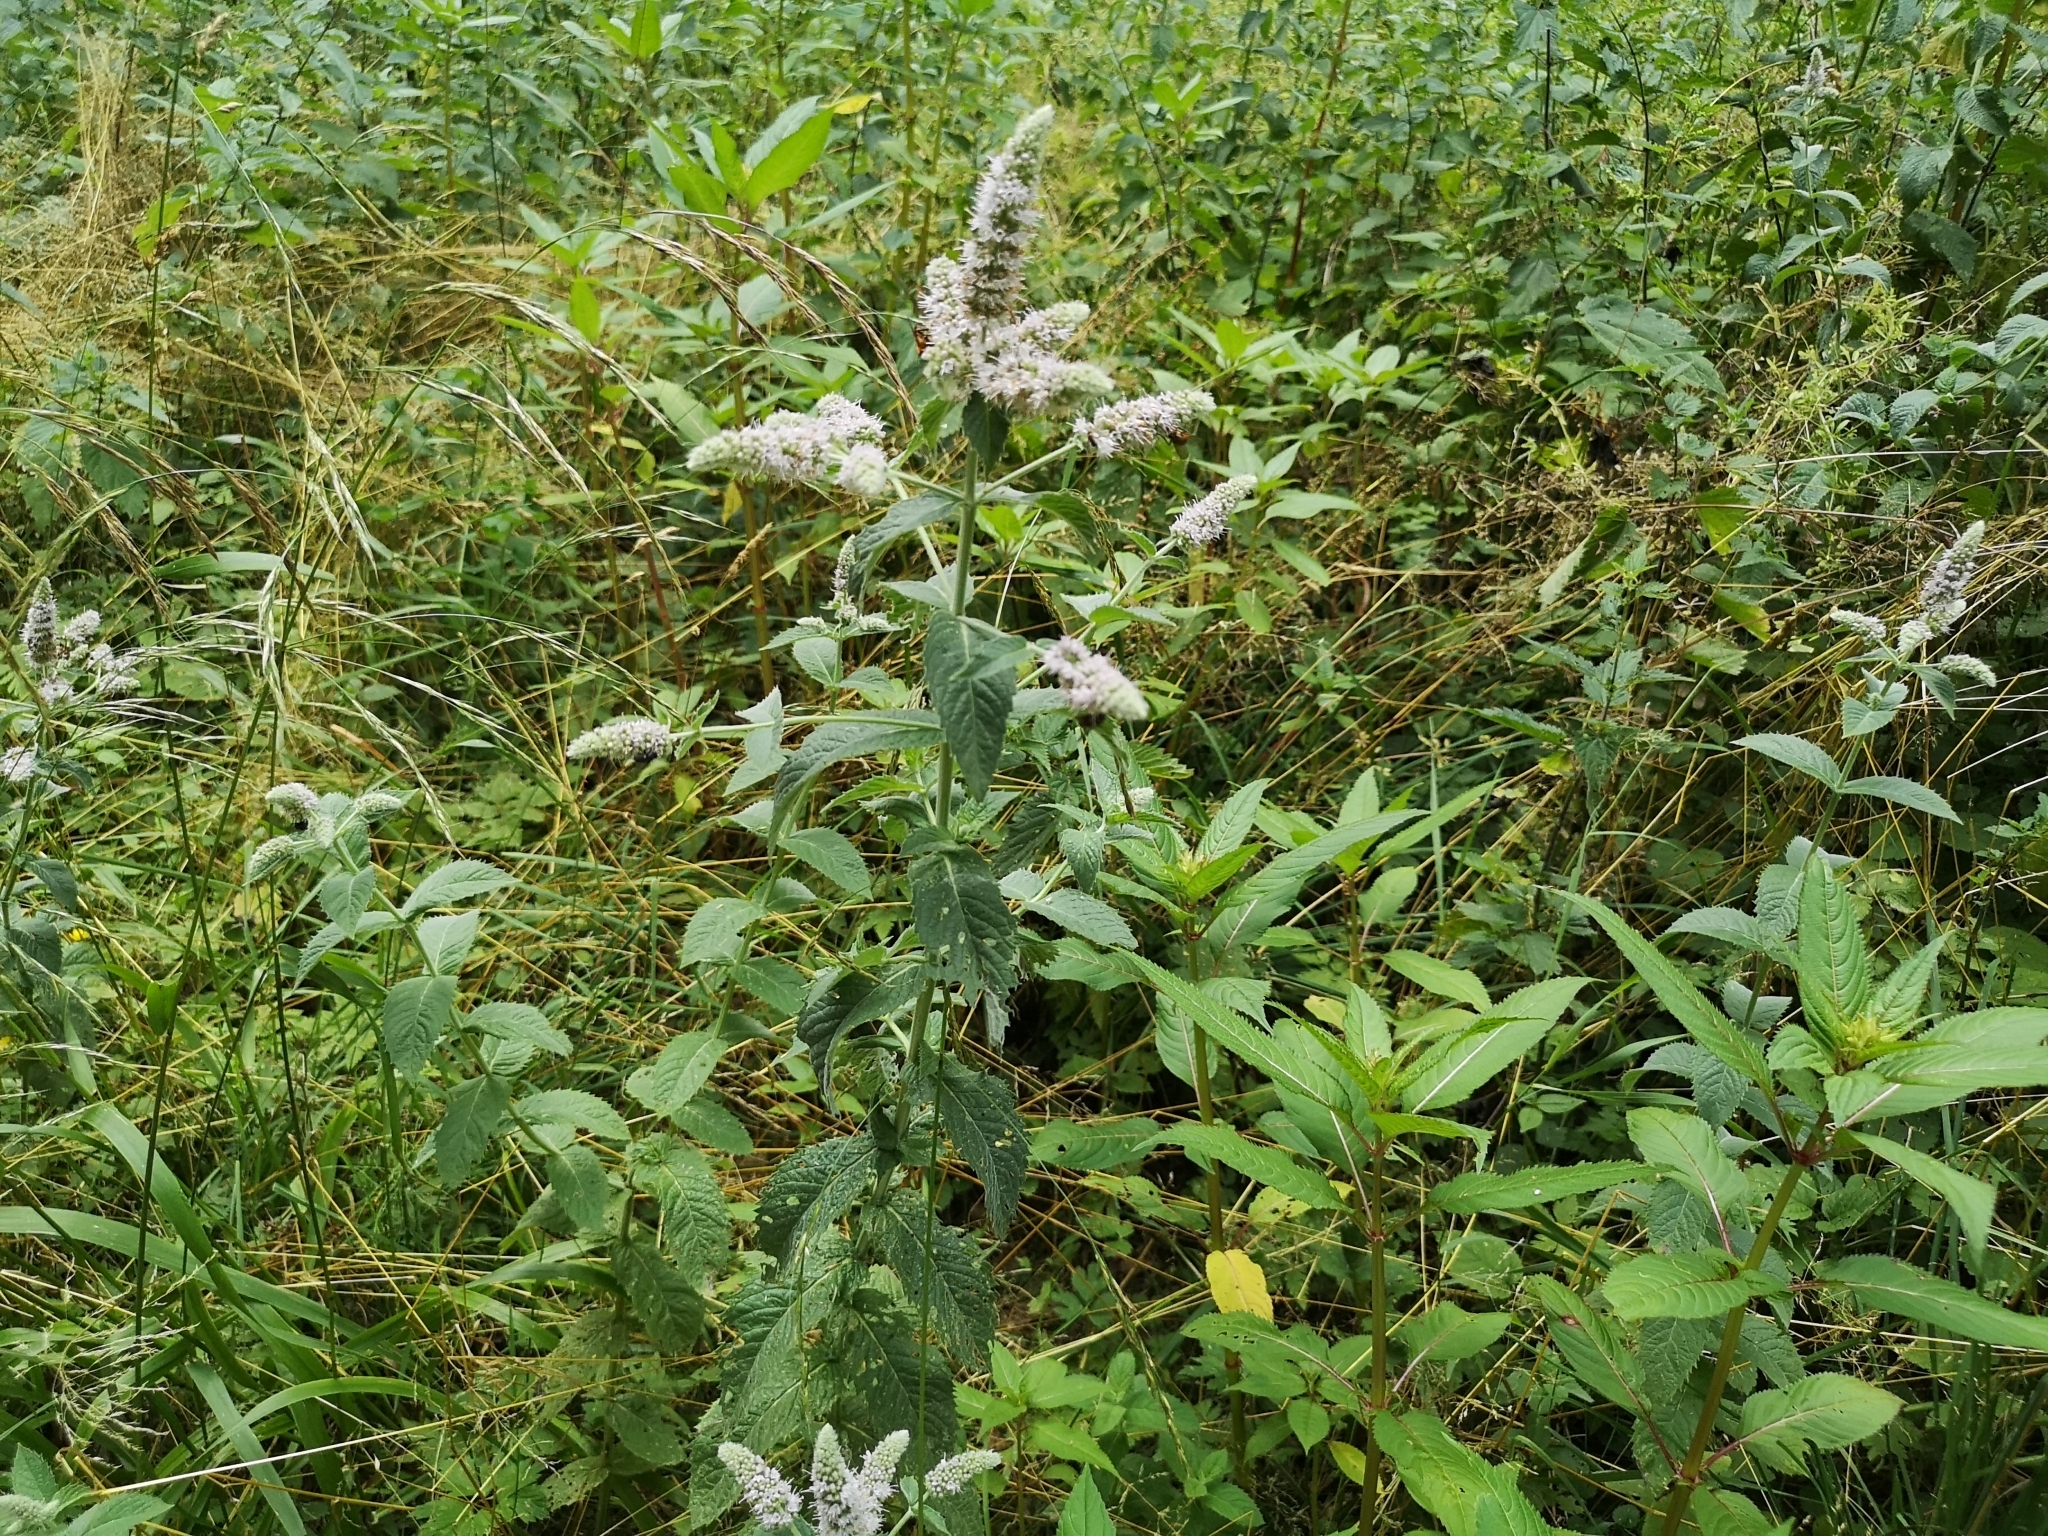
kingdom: Plantae
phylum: Tracheophyta
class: Magnoliopsida
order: Lamiales
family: Lamiaceae
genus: Mentha
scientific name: Mentha longifolia
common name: Horse mint
